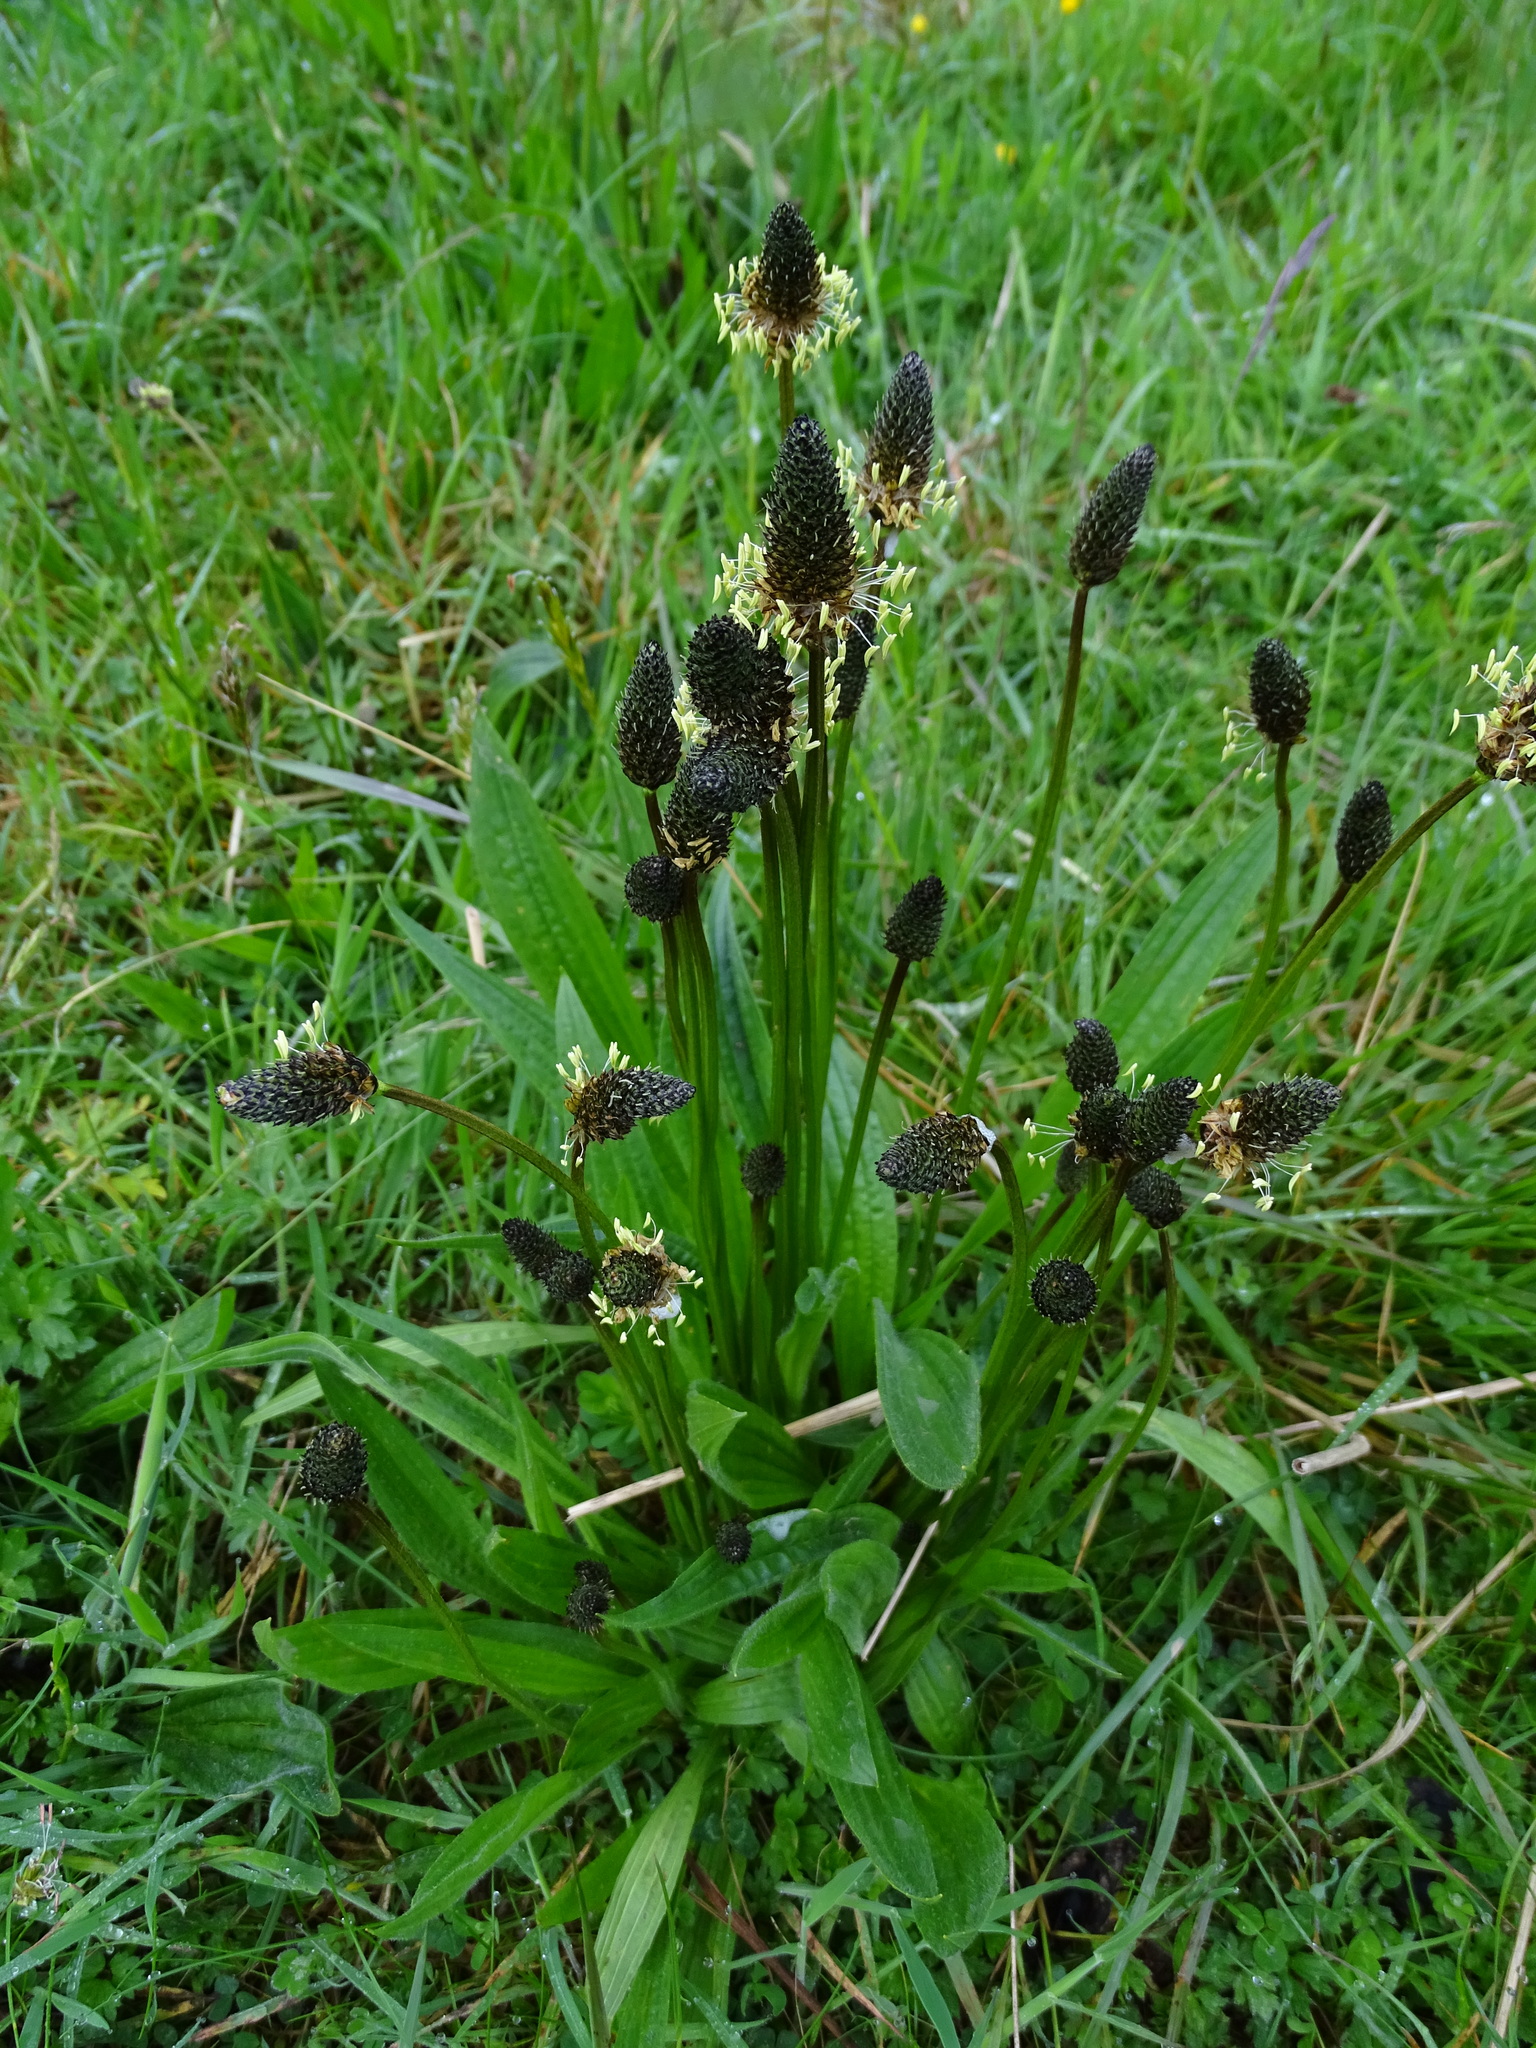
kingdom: Plantae
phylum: Tracheophyta
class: Magnoliopsida
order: Lamiales
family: Plantaginaceae
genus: Plantago
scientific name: Plantago lanceolata
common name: Ribwort plantain
